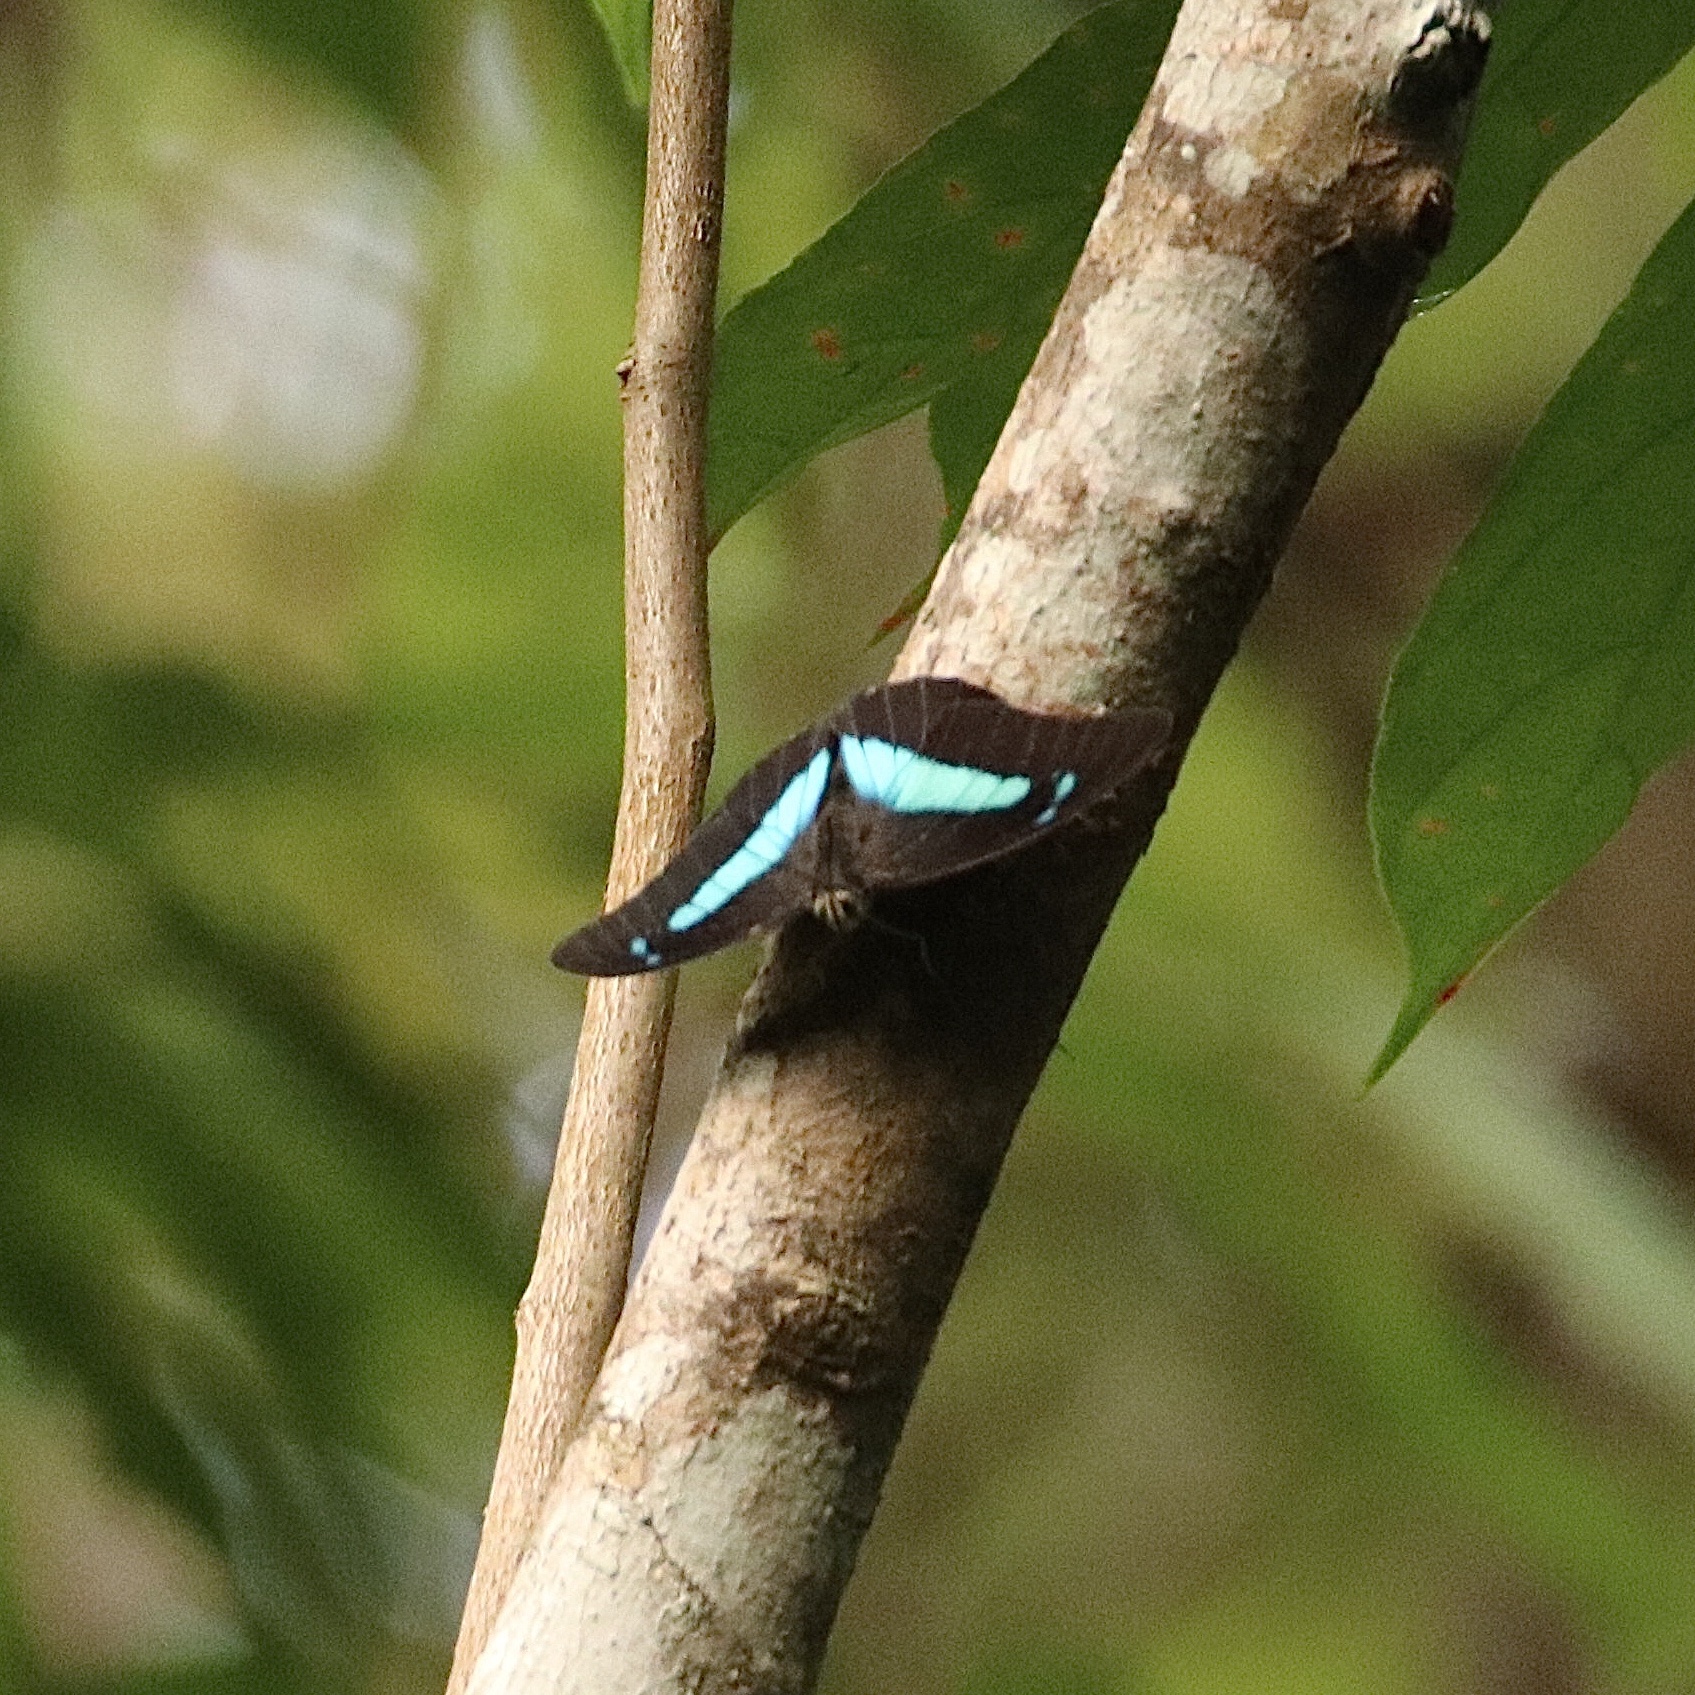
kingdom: Animalia
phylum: Arthropoda
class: Insecta
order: Lepidoptera
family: Nymphalidae
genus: Prepona
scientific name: Prepona demophon
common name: One-spotted prepona
